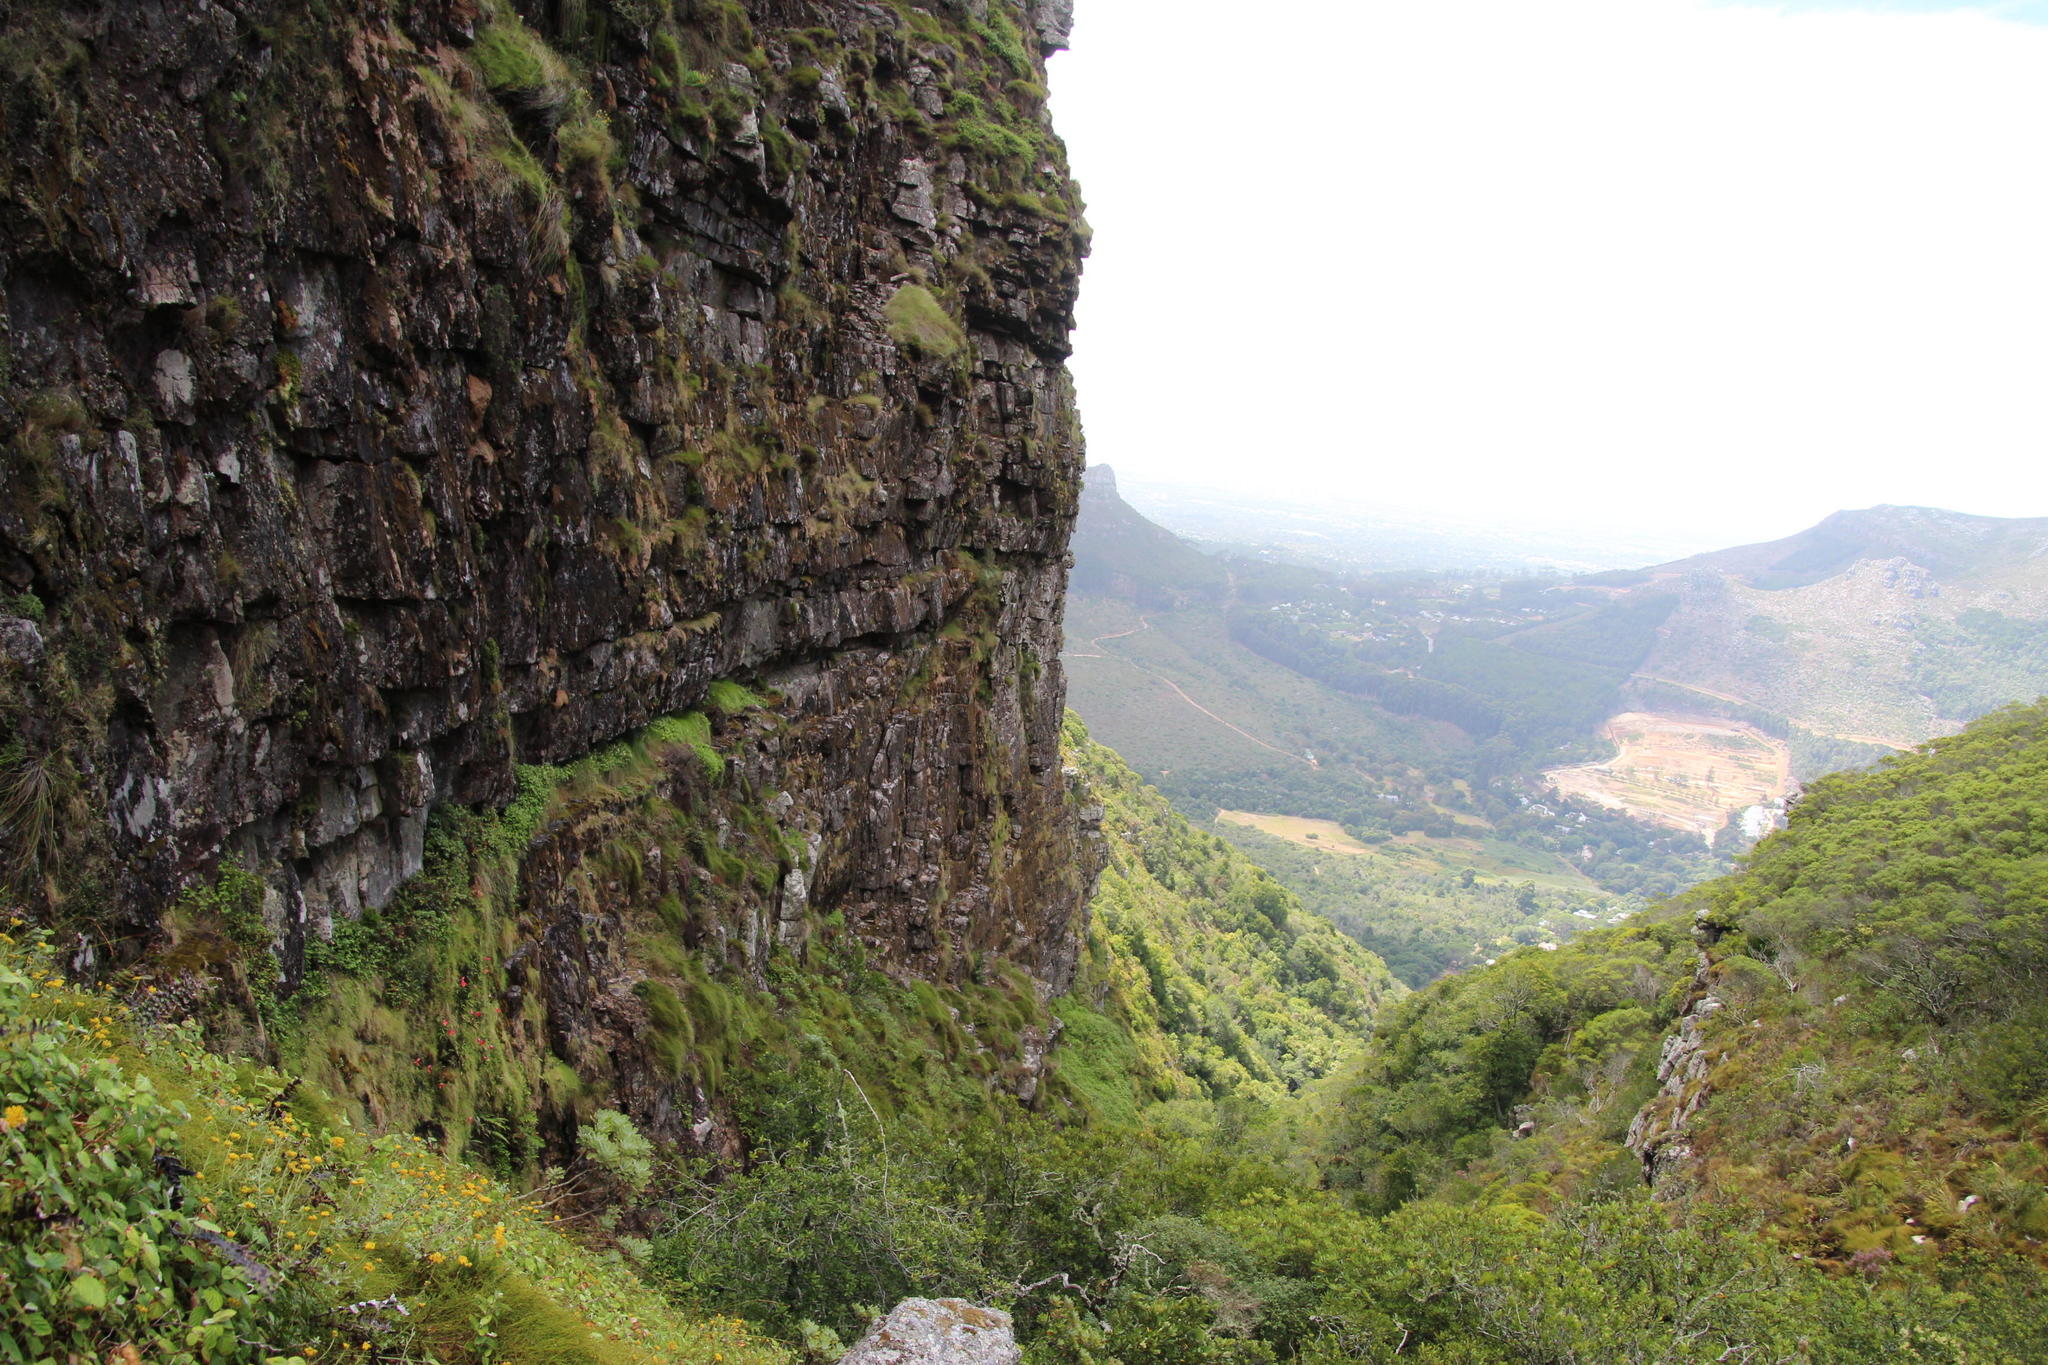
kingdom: Plantae
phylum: Tracheophyta
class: Liliopsida
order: Asparagales
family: Orchidaceae
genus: Disa
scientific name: Disa uniflora
